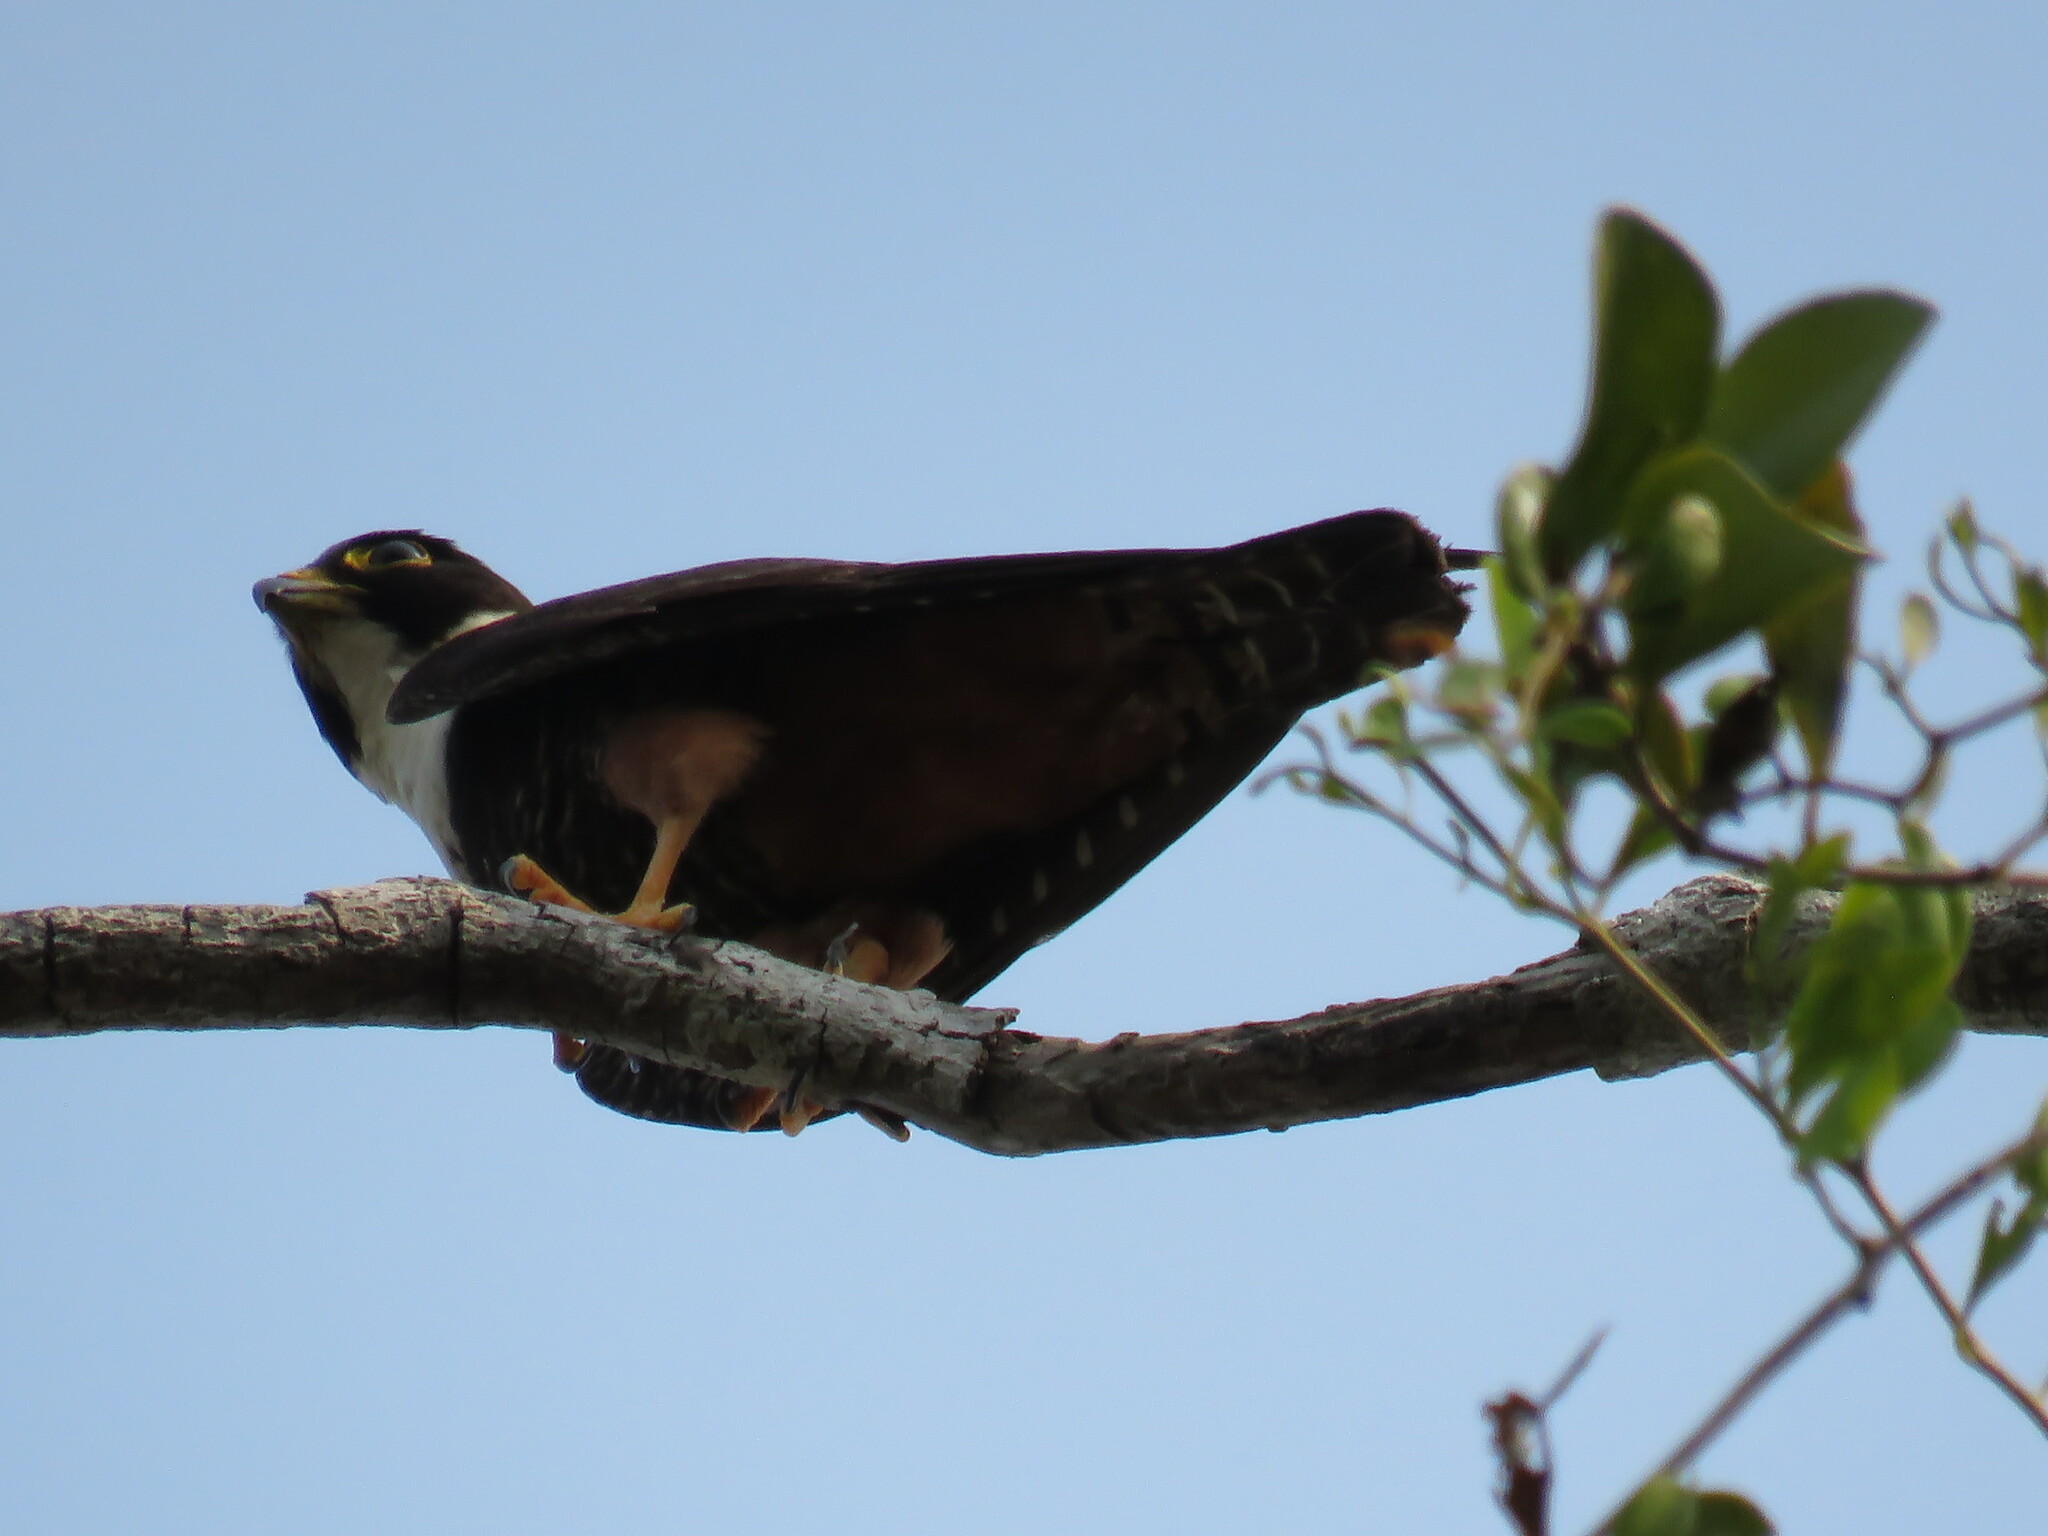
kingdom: Animalia
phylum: Chordata
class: Aves
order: Falconiformes
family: Falconidae
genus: Falco
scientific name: Falco rufigularis
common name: Bat falcon
